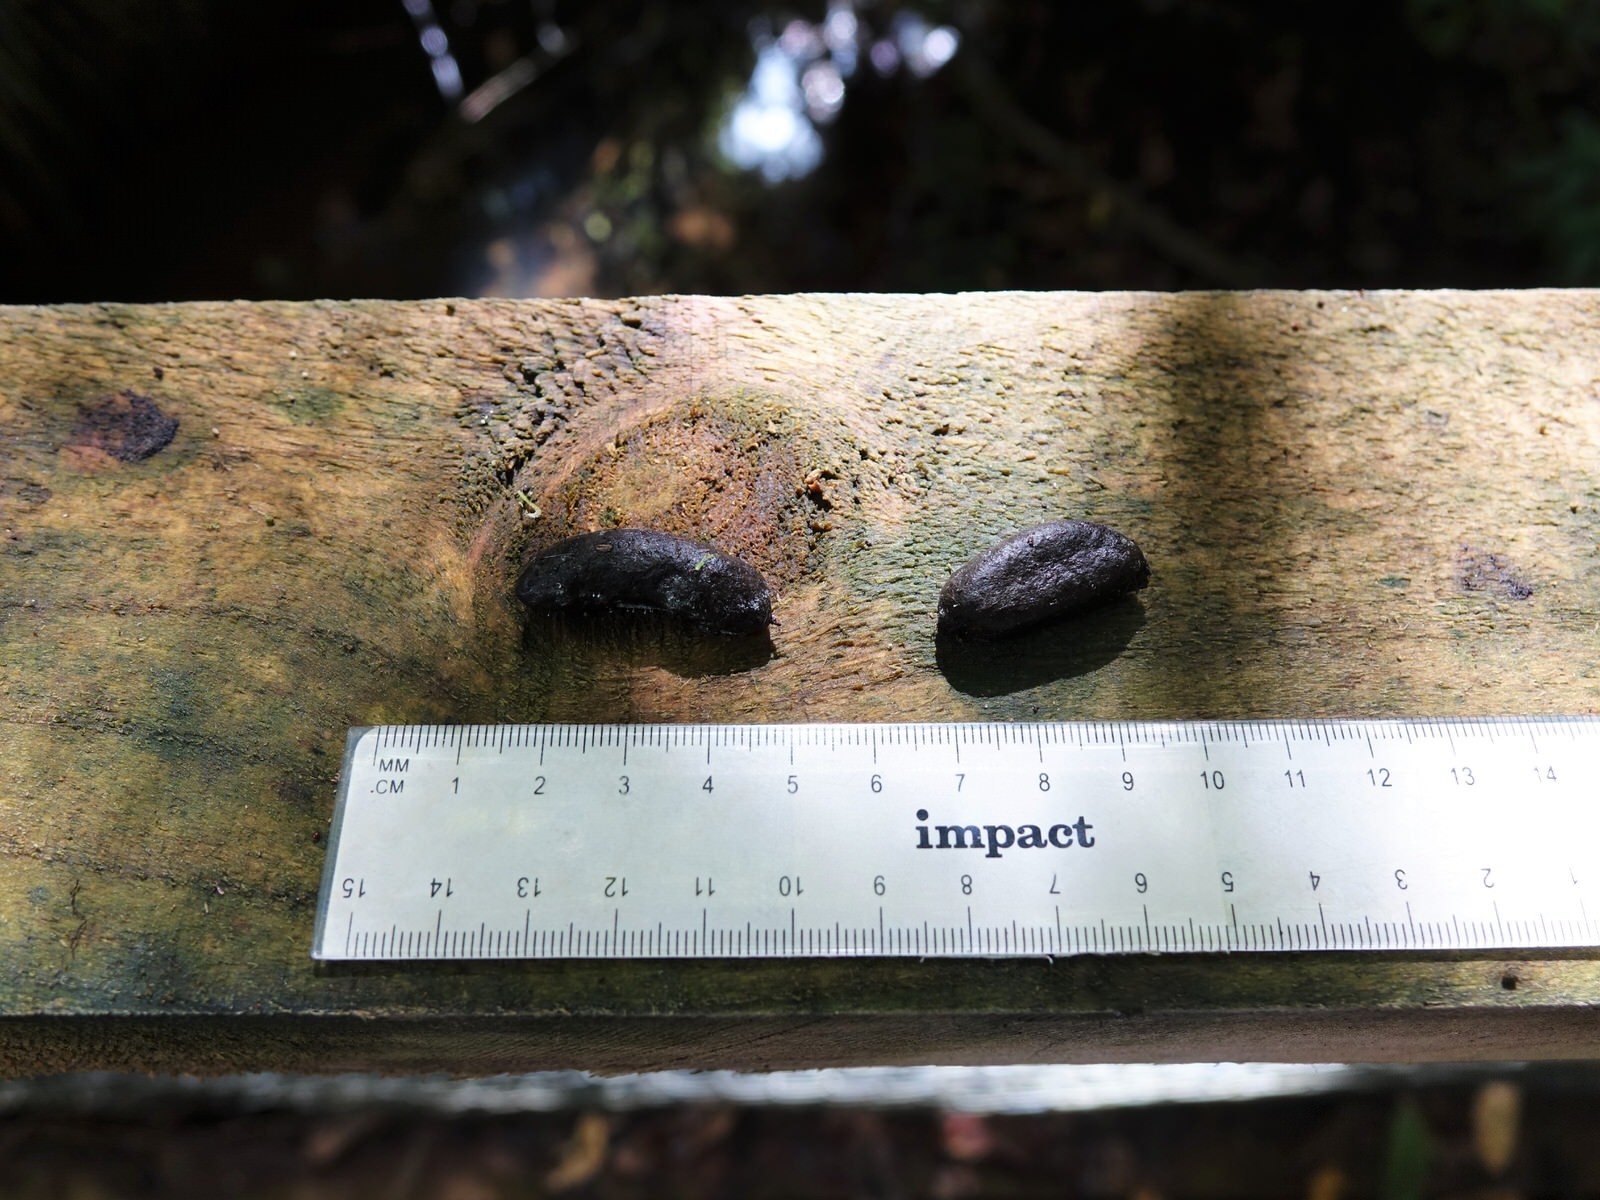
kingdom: Animalia
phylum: Chordata
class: Mammalia
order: Diprotodontia
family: Phalangeridae
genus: Trichosurus
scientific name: Trichosurus vulpecula
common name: Common brushtail
